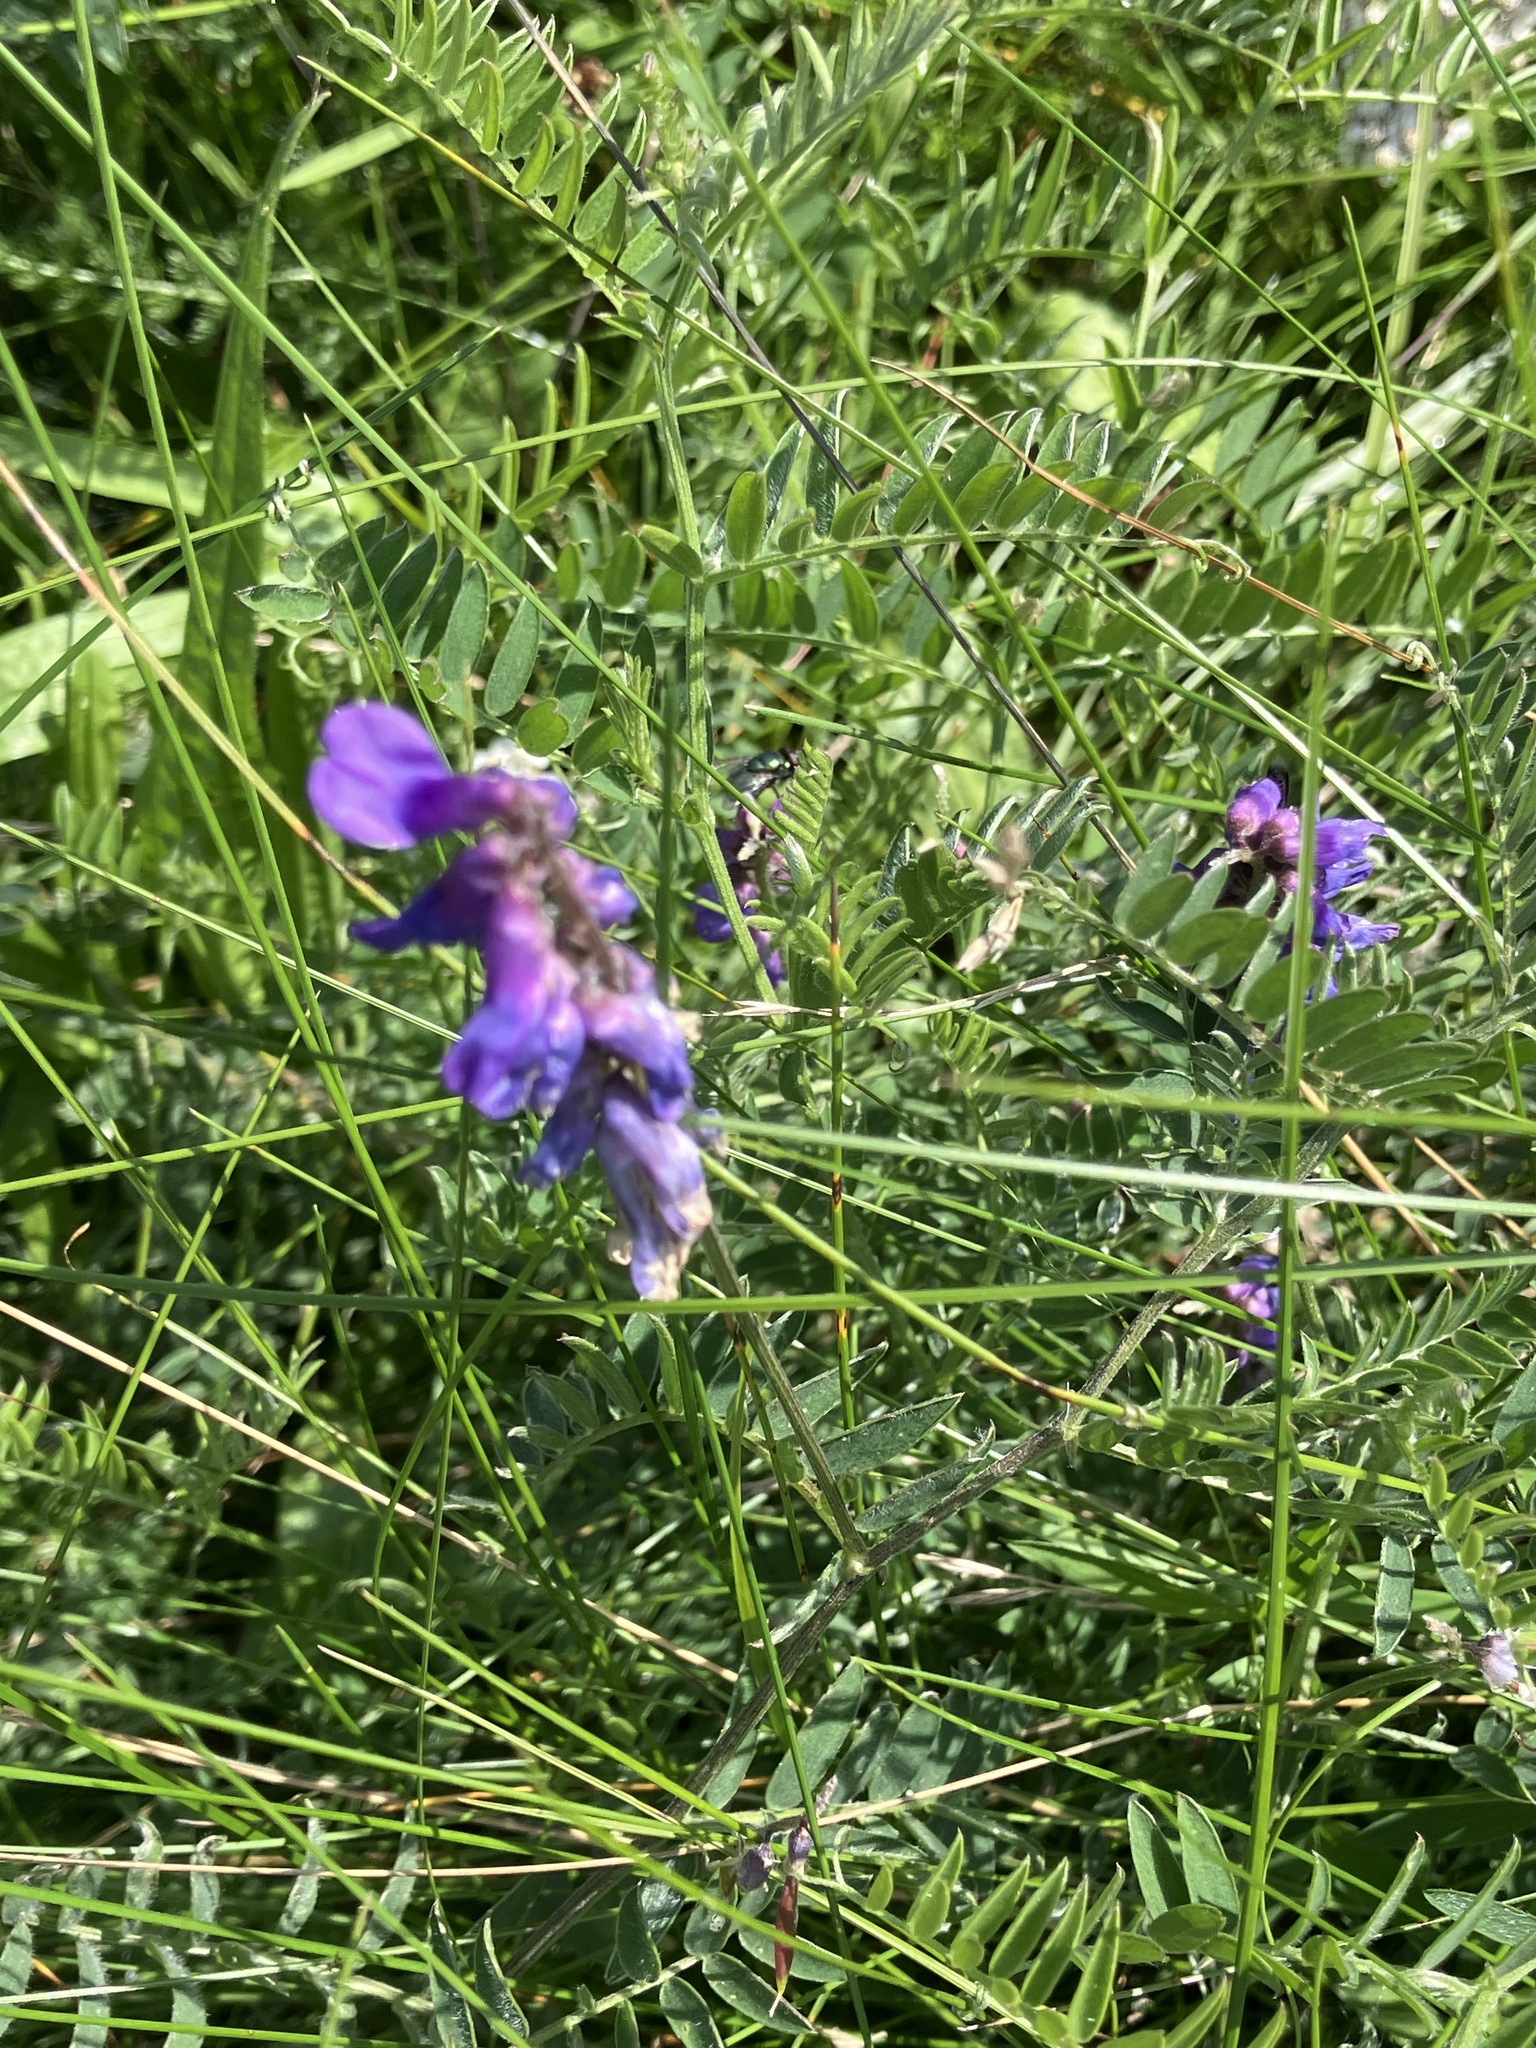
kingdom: Plantae
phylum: Tracheophyta
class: Magnoliopsida
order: Fabales
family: Fabaceae
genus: Vicia
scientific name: Vicia cracca
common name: Bird vetch
